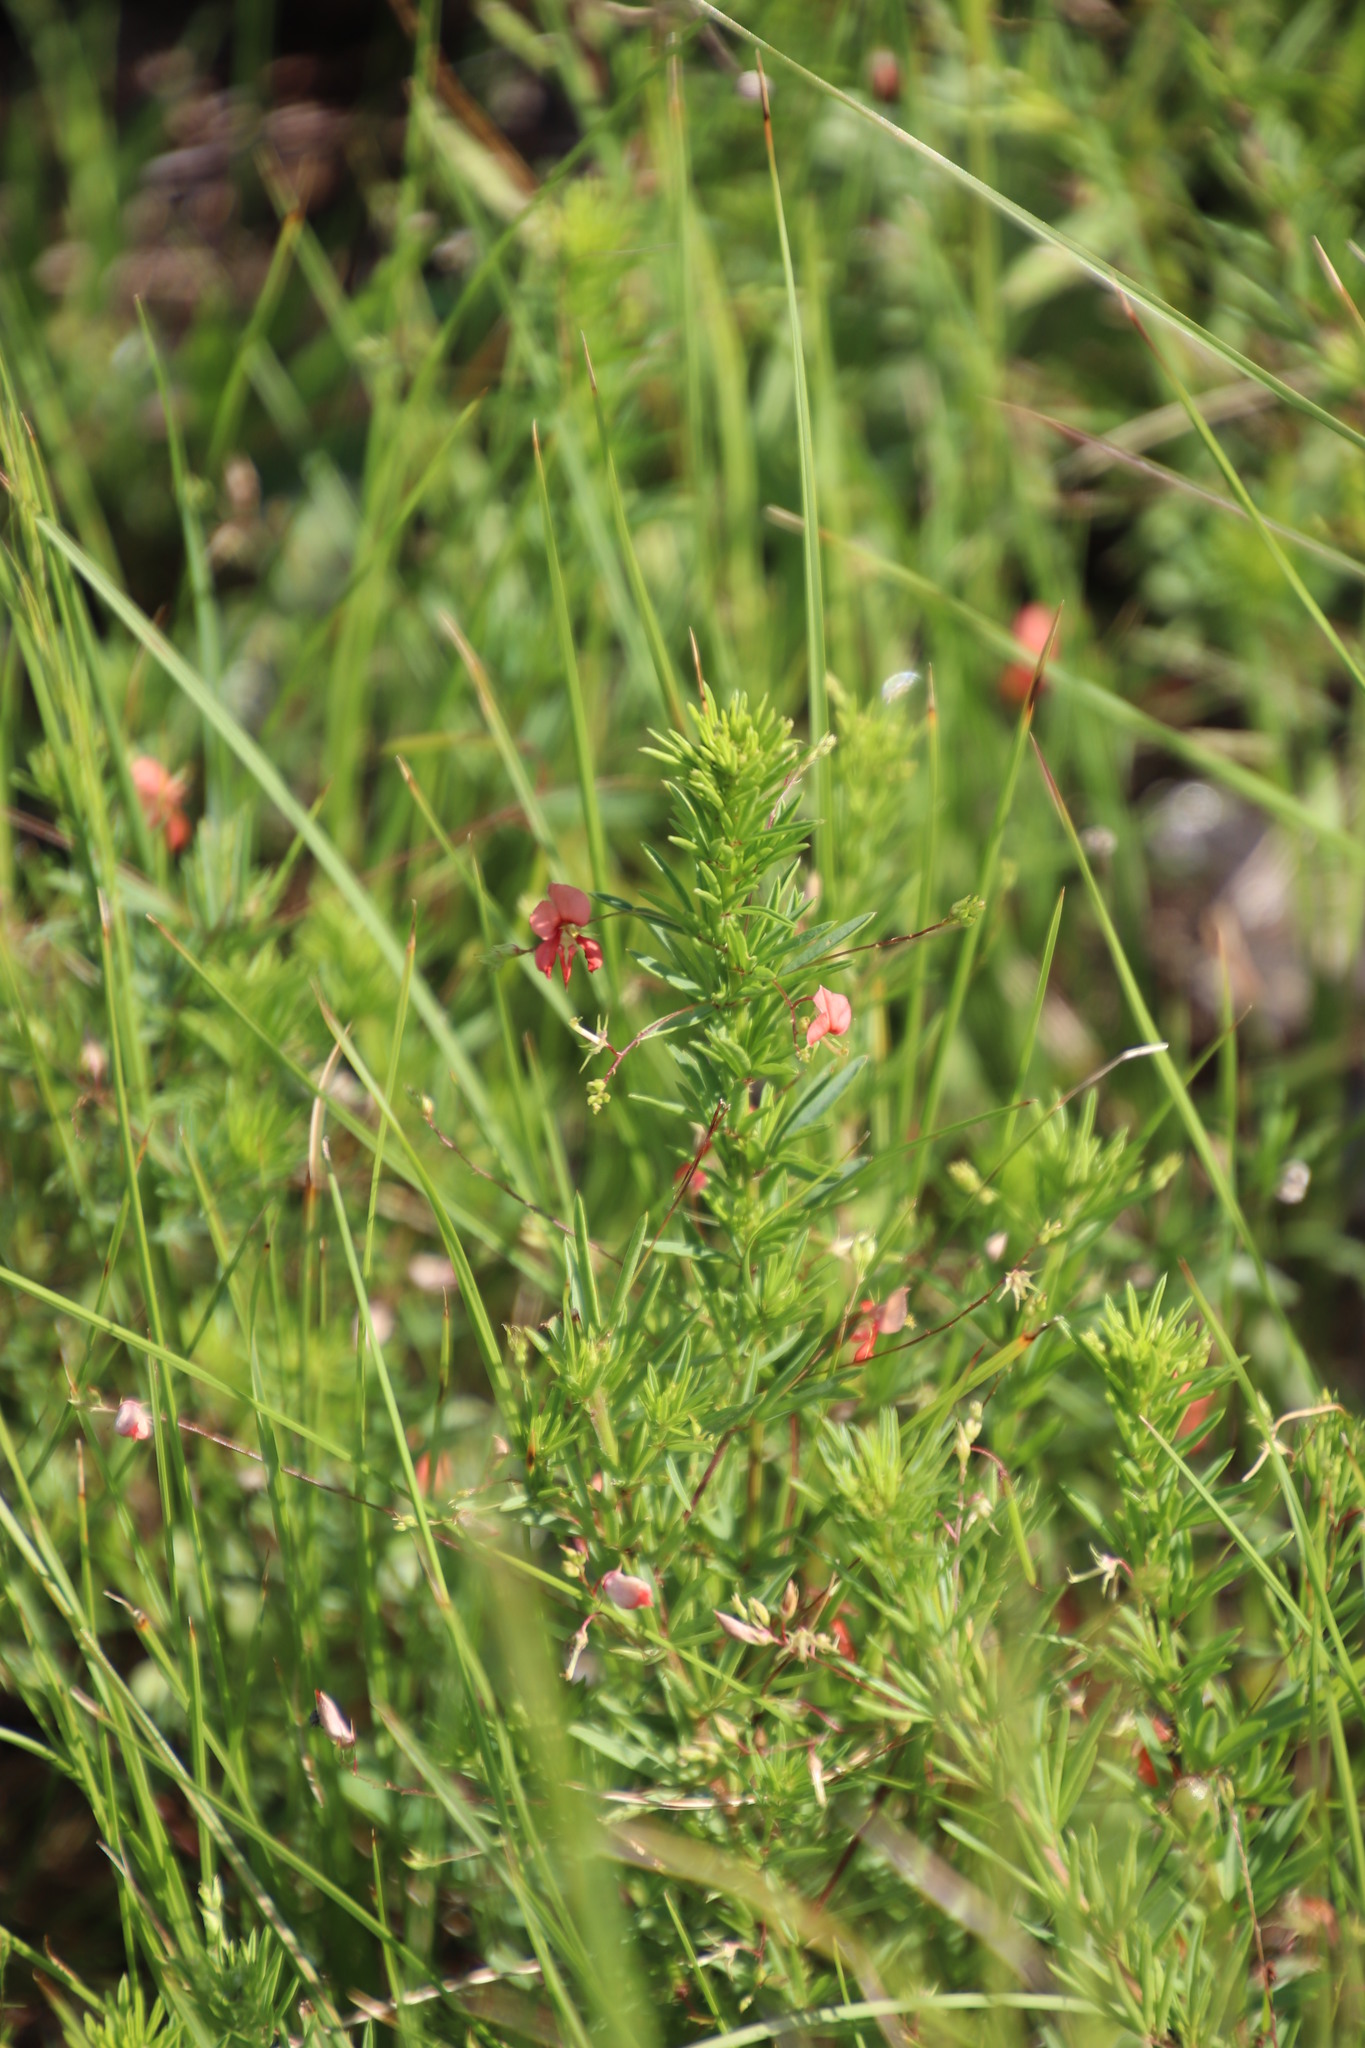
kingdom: Plantae
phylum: Tracheophyta
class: Magnoliopsida
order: Fabales
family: Fabaceae
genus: Indigofera
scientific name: Indigofera punctata
